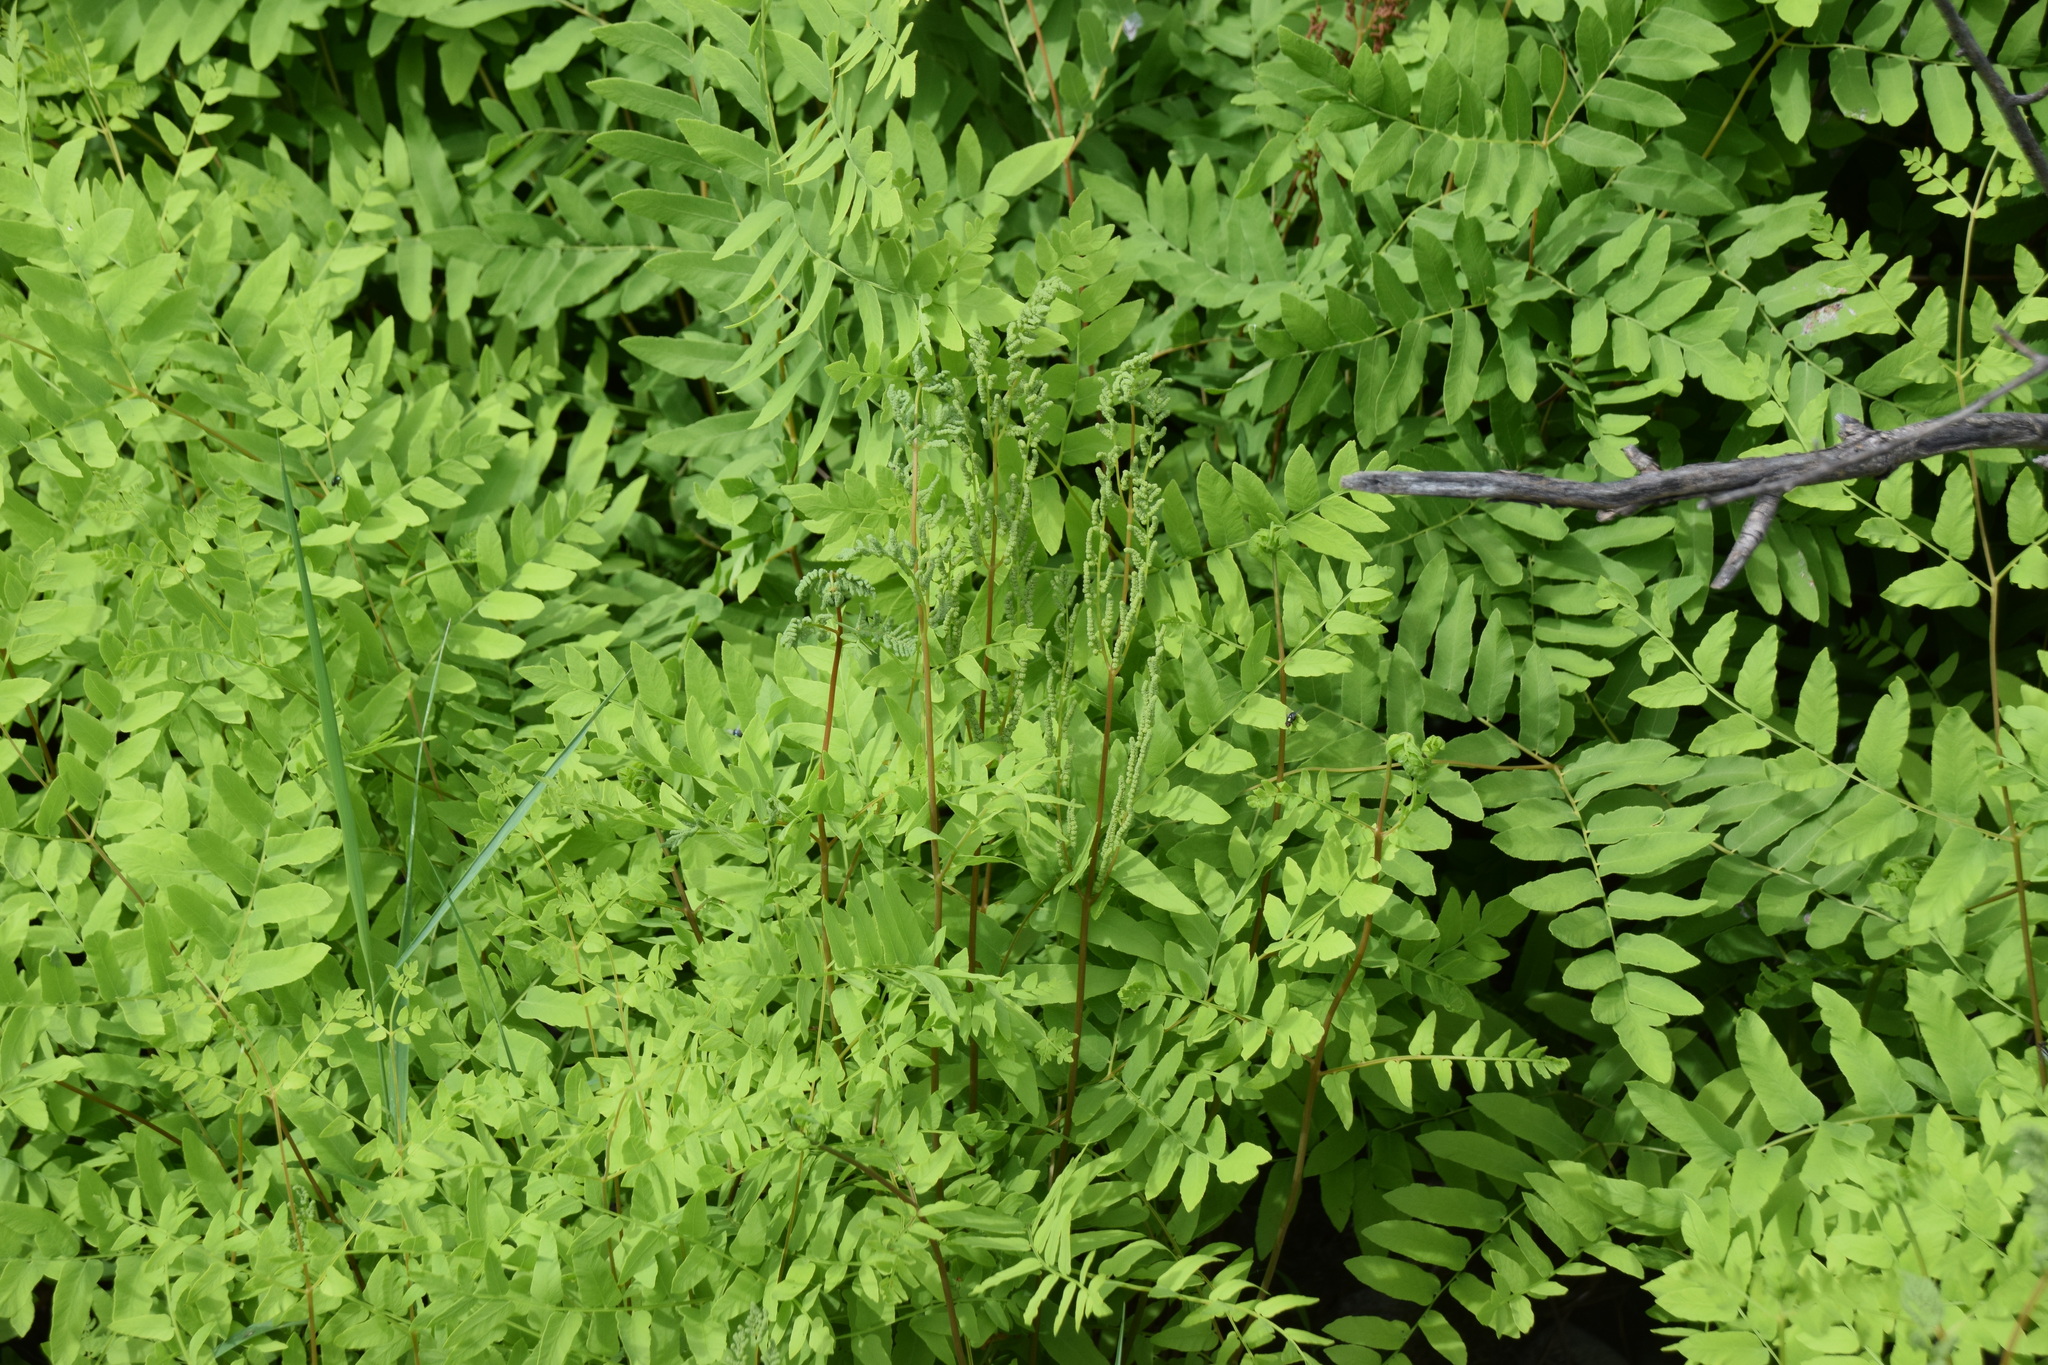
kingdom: Plantae
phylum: Tracheophyta
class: Polypodiopsida
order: Osmundales
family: Osmundaceae
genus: Osmunda
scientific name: Osmunda spectabilis
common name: American royal fern
